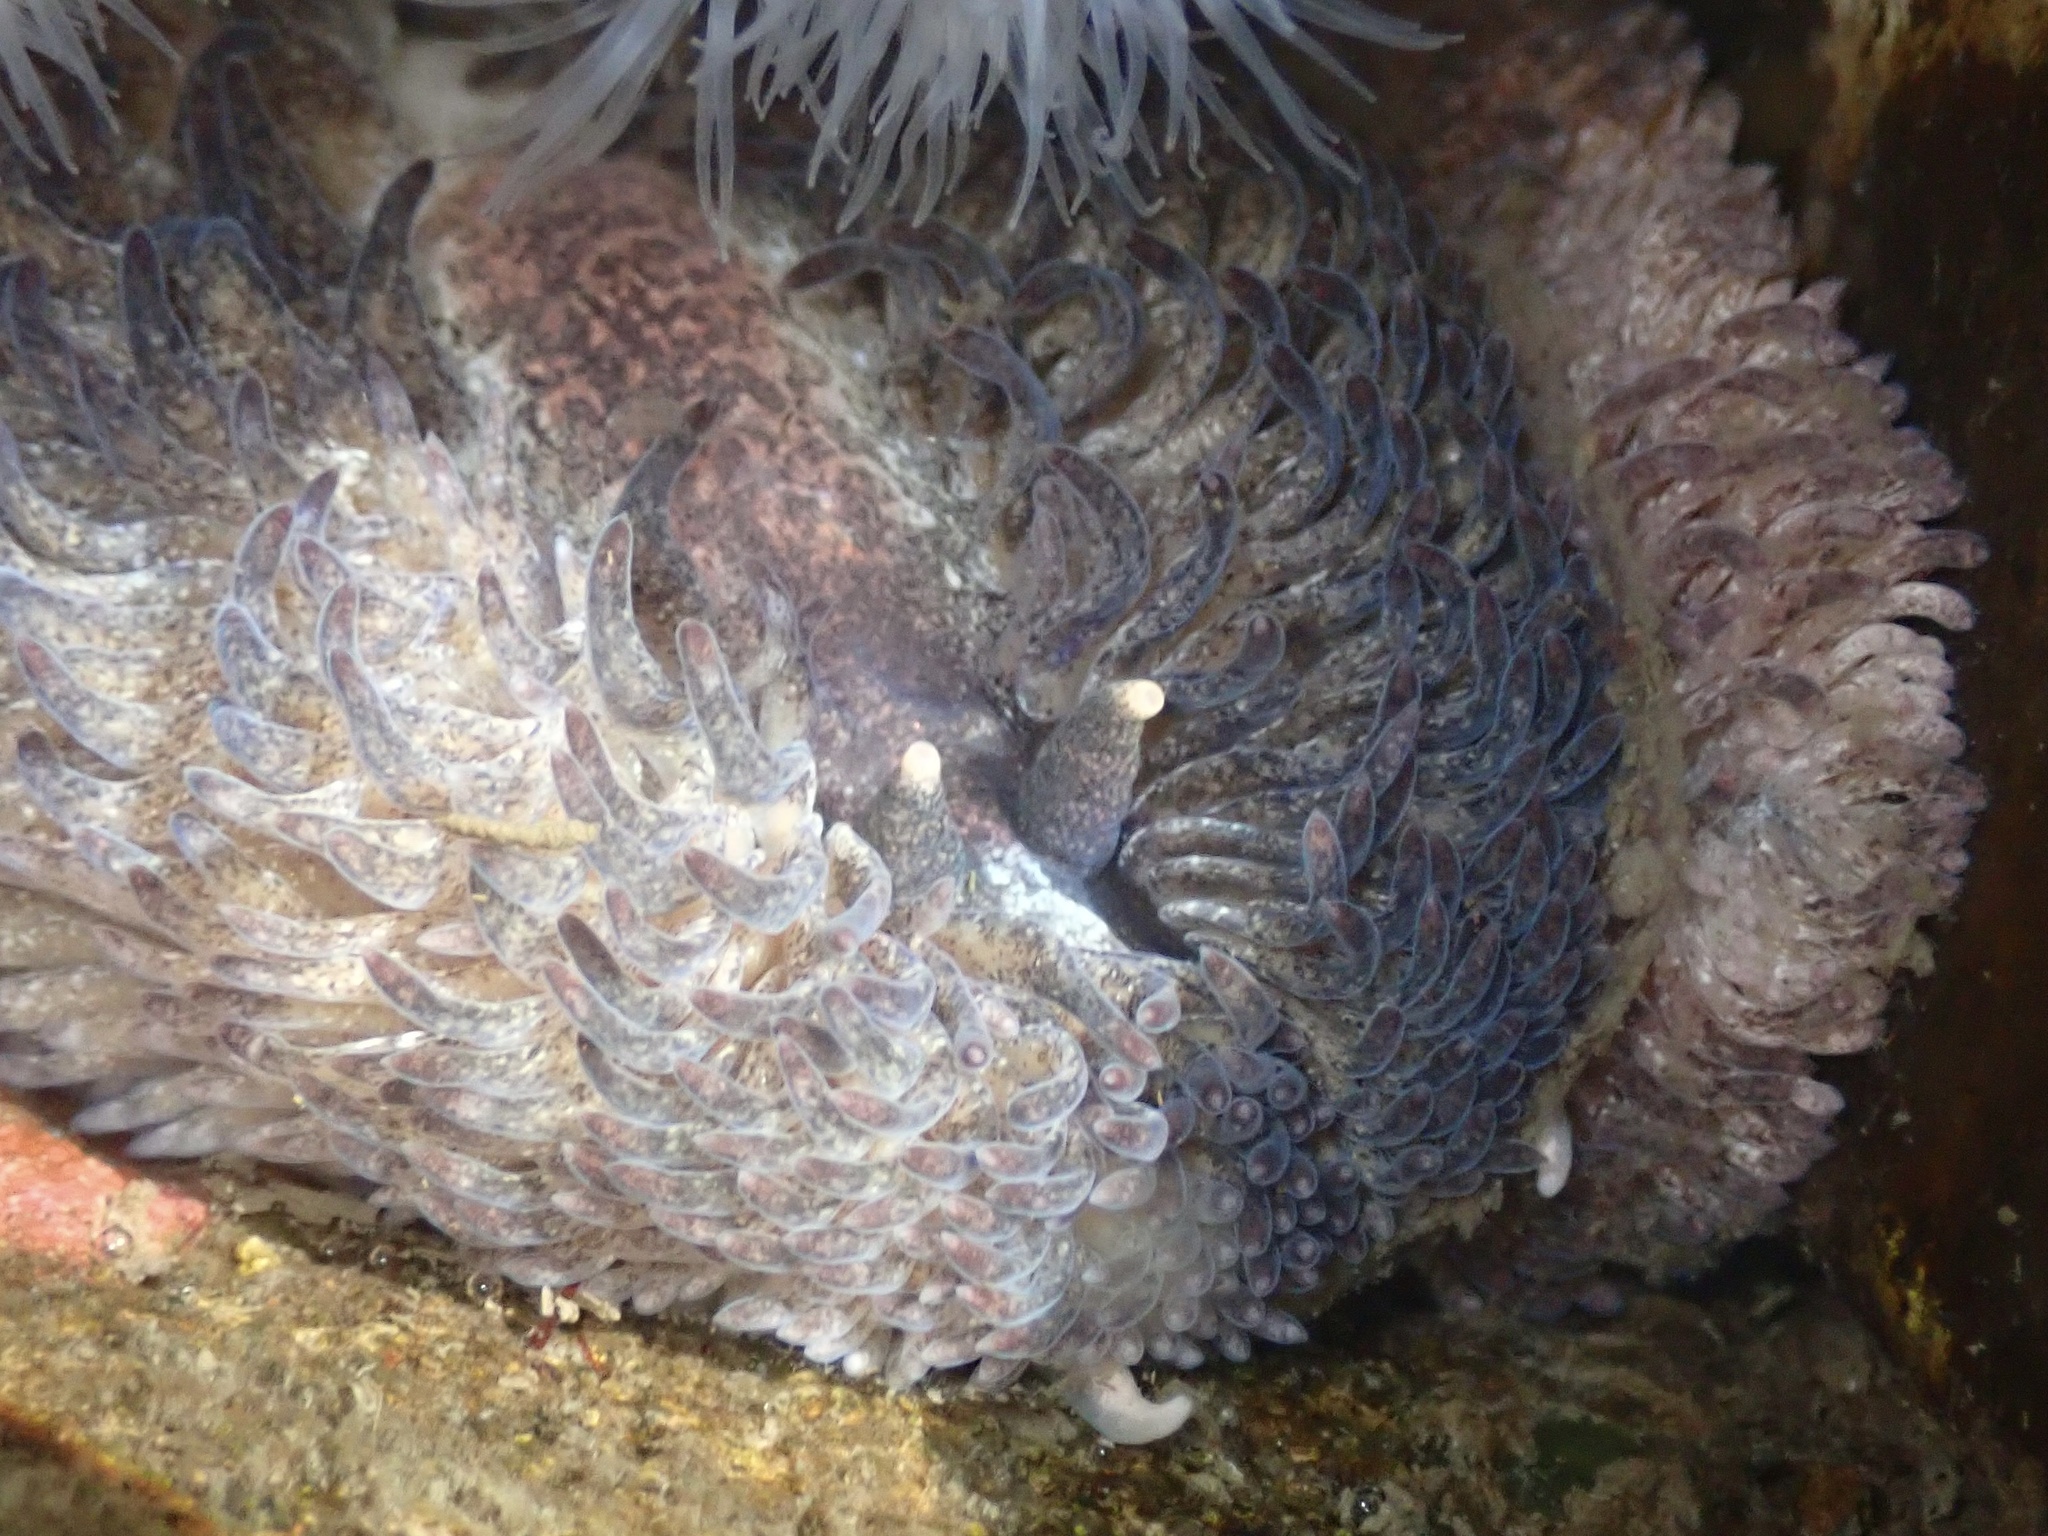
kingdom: Animalia
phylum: Mollusca
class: Gastropoda
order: Nudibranchia
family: Aeolidiidae
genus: Aeolidia
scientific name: Aeolidia papillosa
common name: Common grey sea slug
